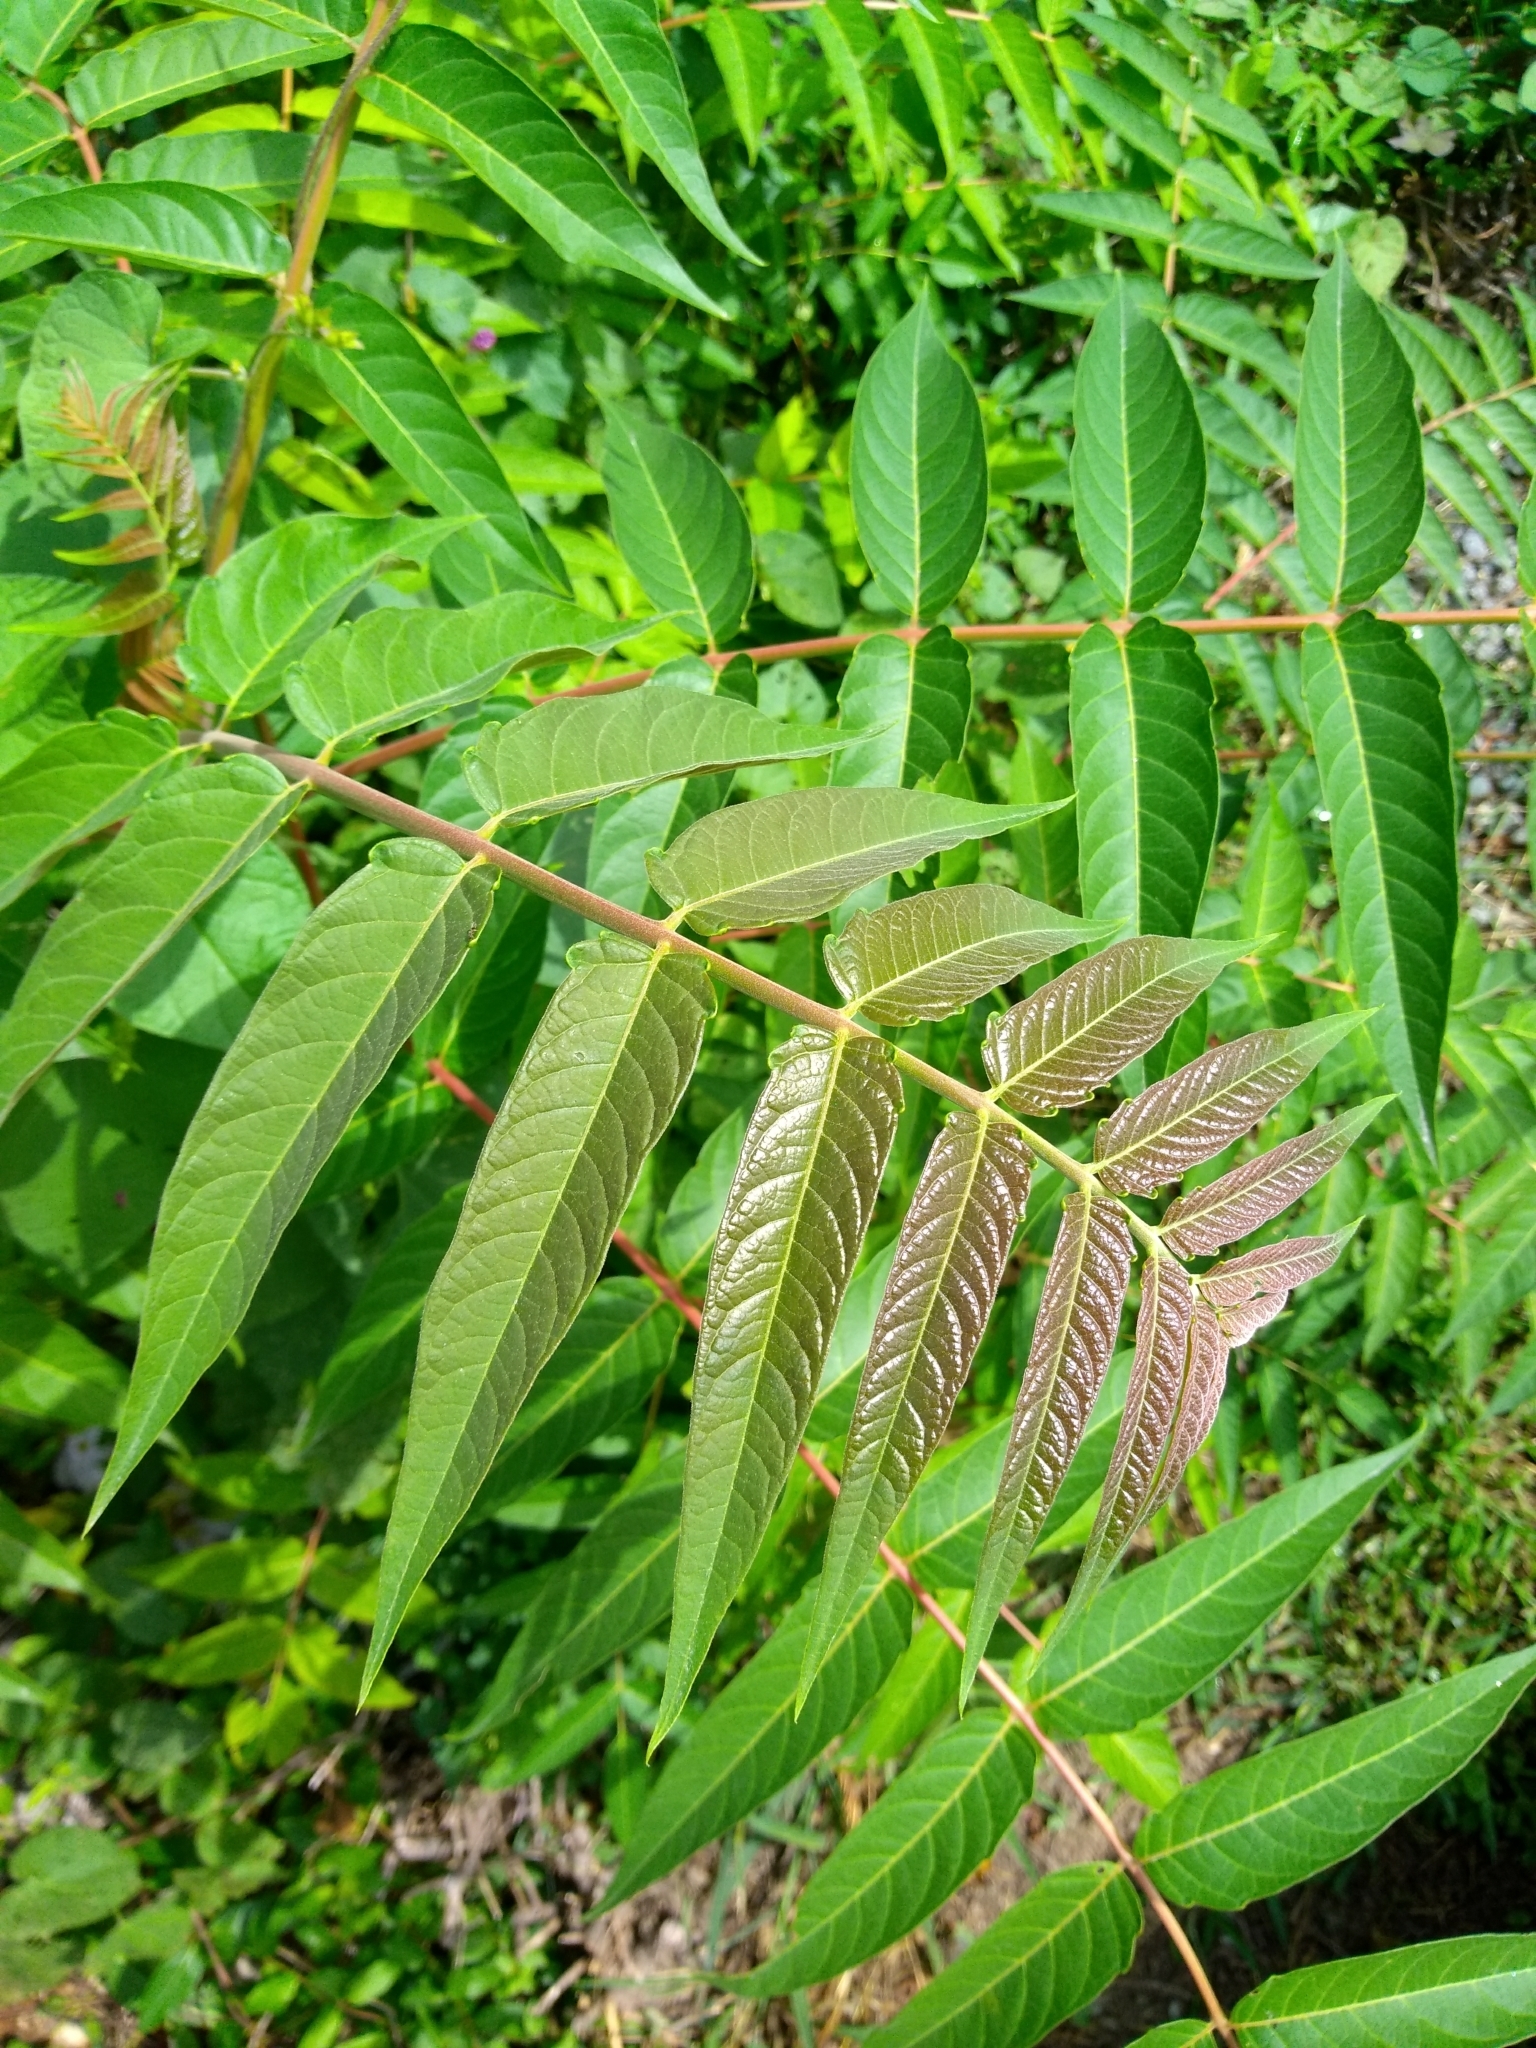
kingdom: Plantae
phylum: Tracheophyta
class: Magnoliopsida
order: Sapindales
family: Simaroubaceae
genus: Ailanthus
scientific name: Ailanthus altissima
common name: Tree-of-heaven
